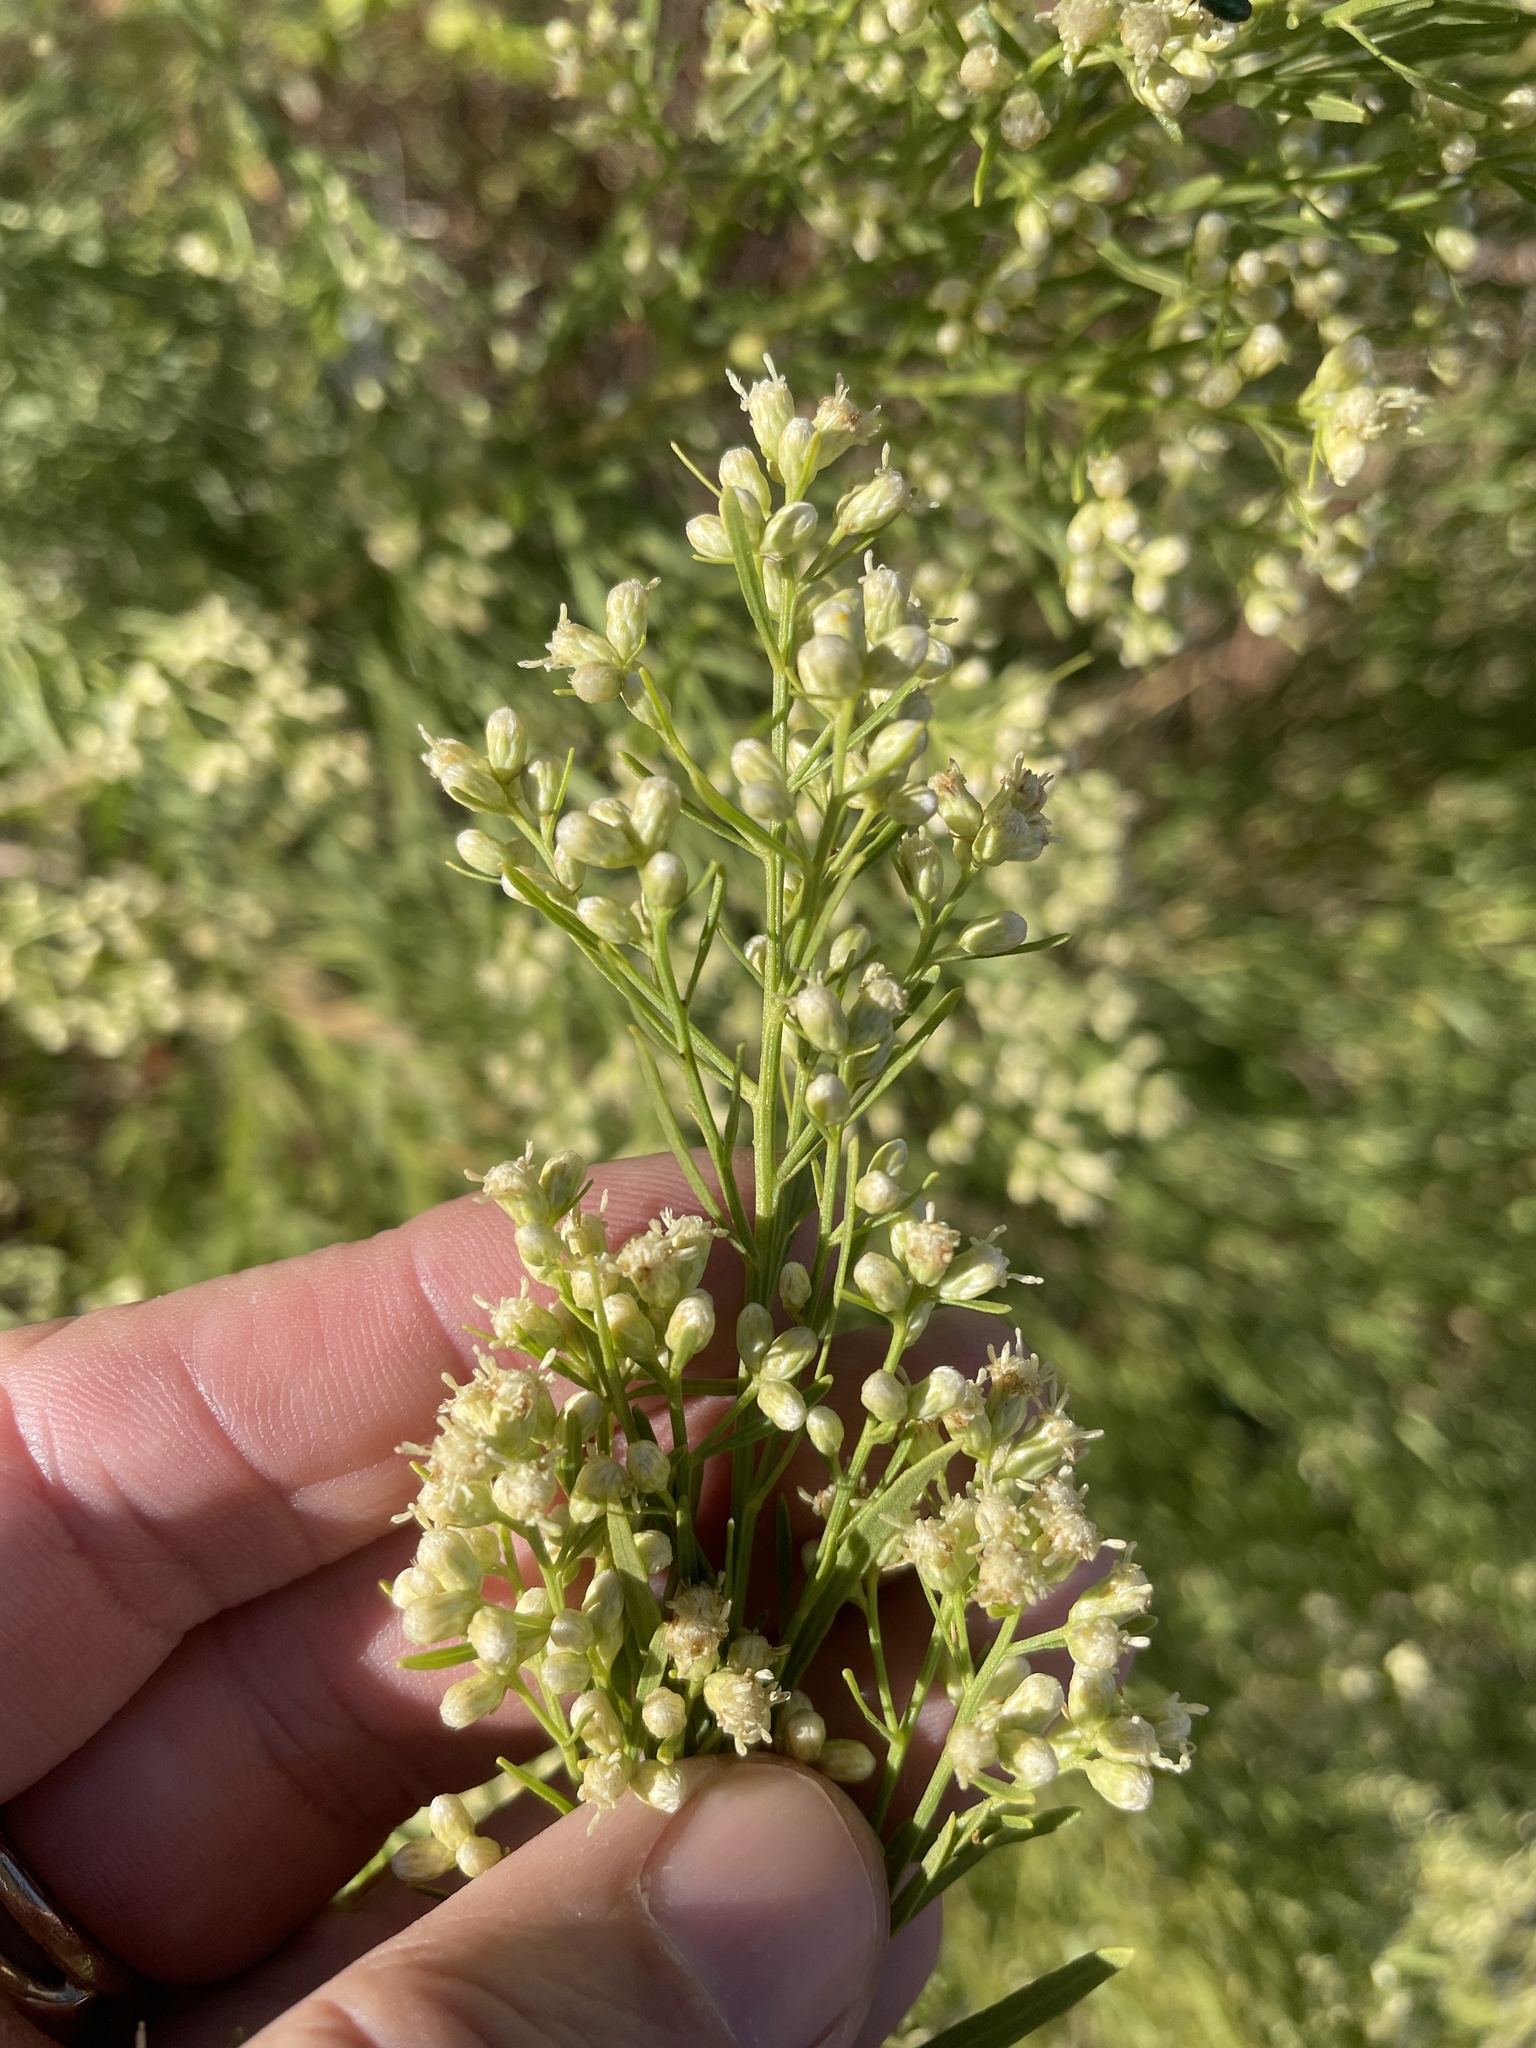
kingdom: Plantae
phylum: Tracheophyta
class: Magnoliopsida
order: Asterales
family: Asteraceae
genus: Baccharis
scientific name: Baccharis neglecta
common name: Roosevelt-weed
